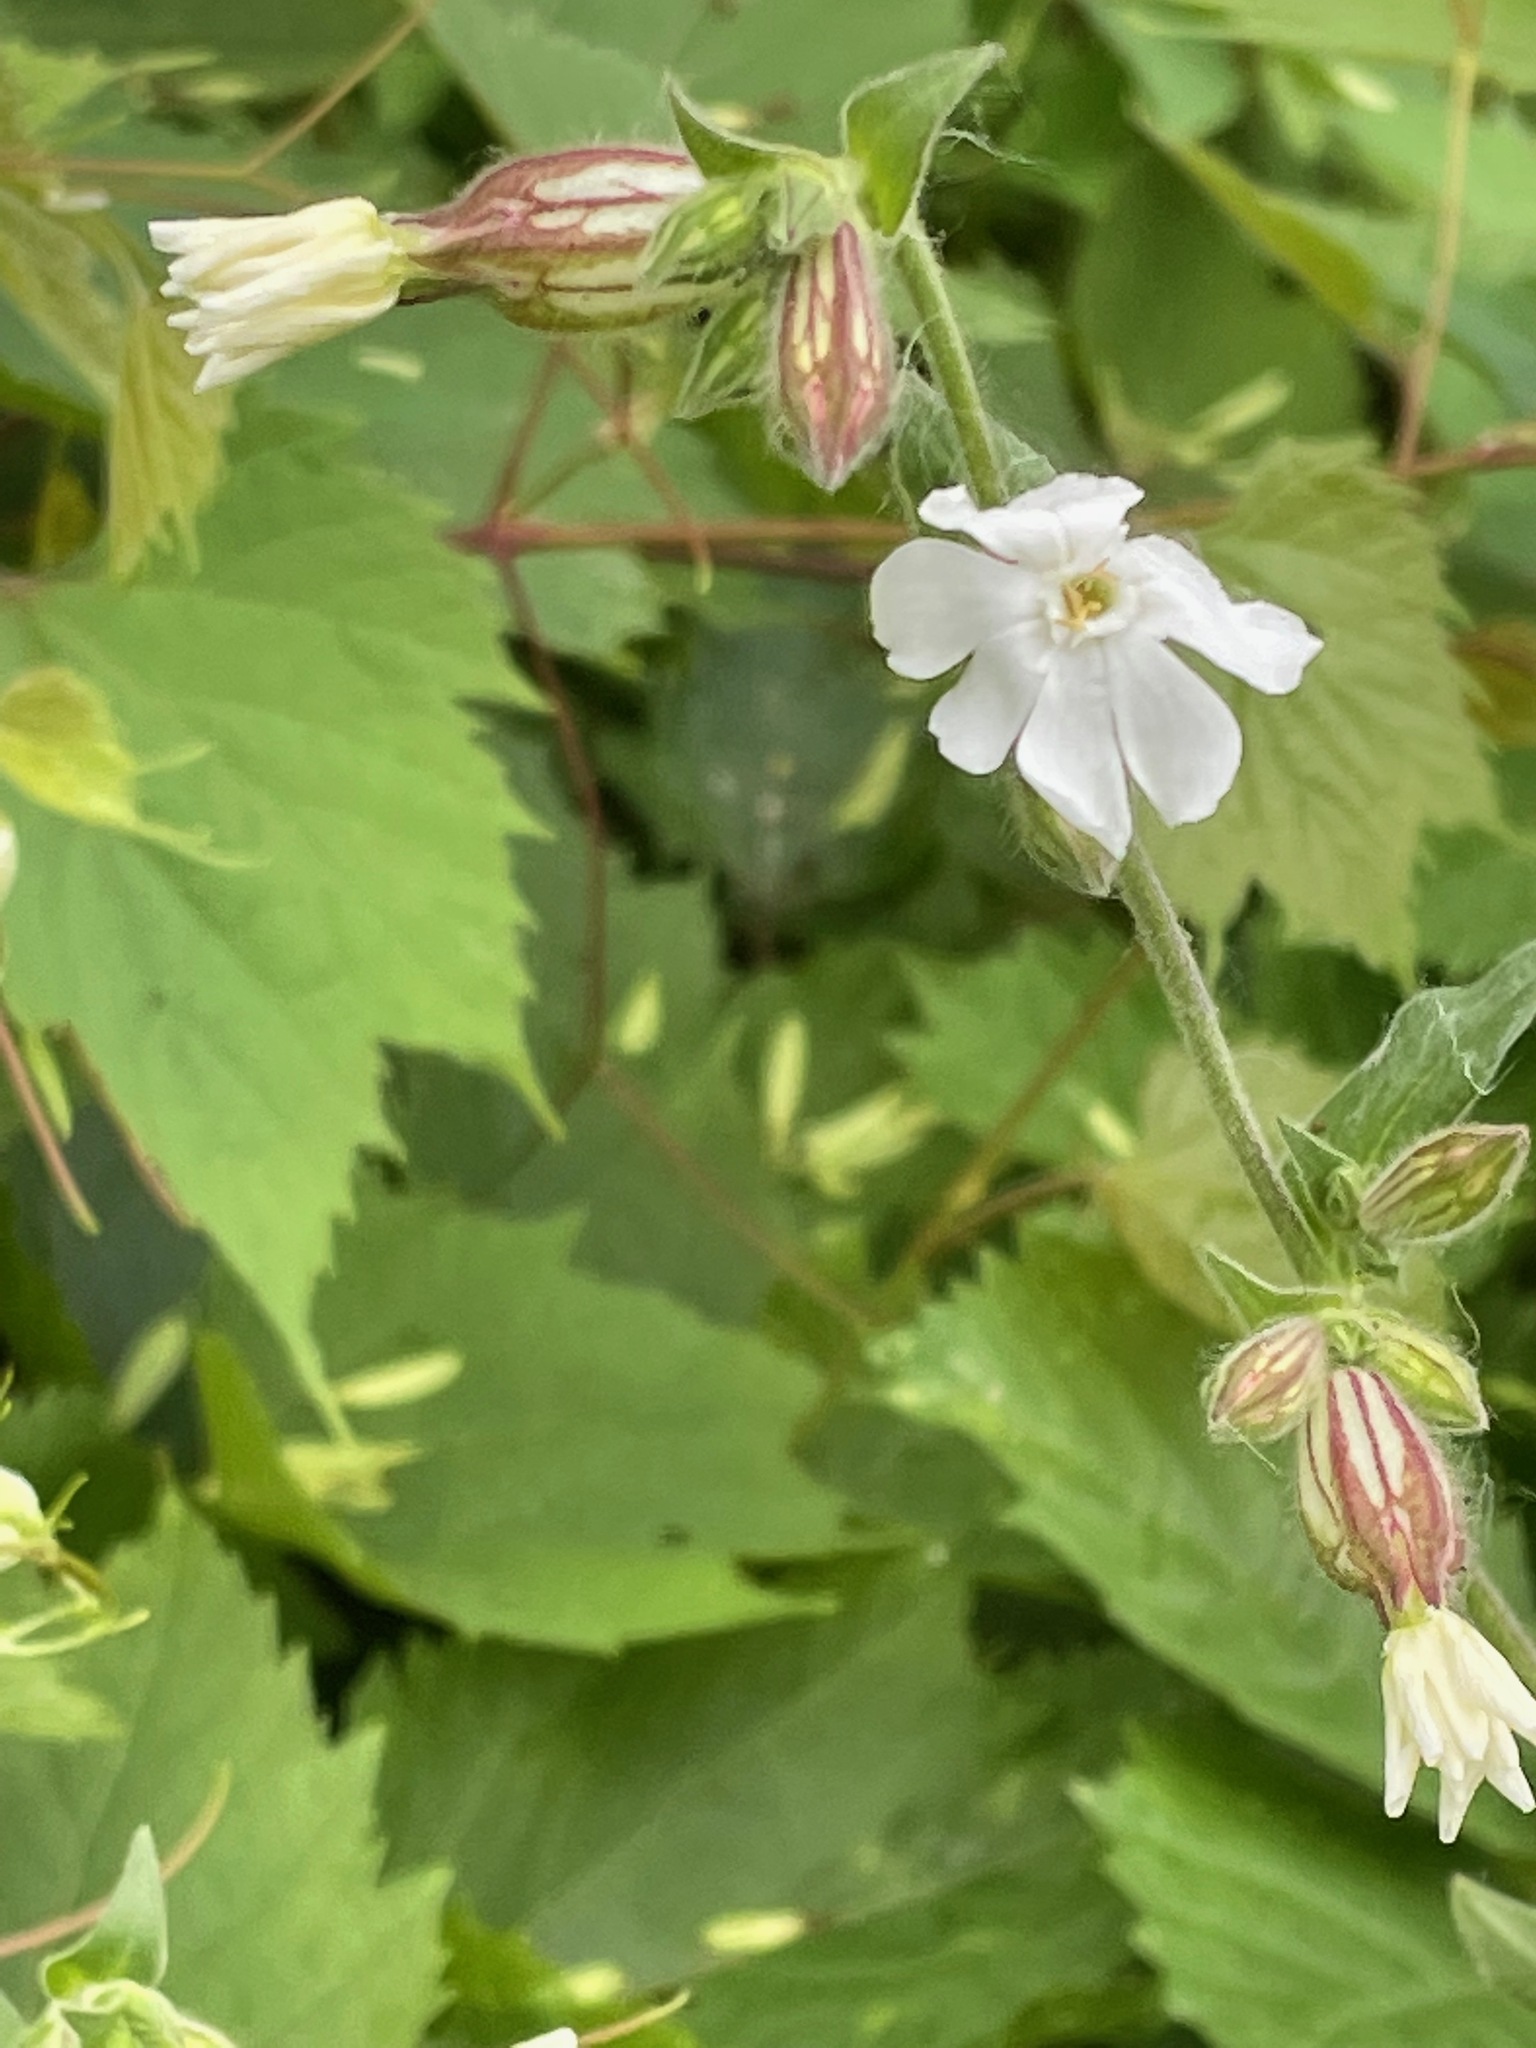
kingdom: Plantae
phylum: Tracheophyta
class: Magnoliopsida
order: Caryophyllales
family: Caryophyllaceae
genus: Silene
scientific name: Silene latifolia
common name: White campion
